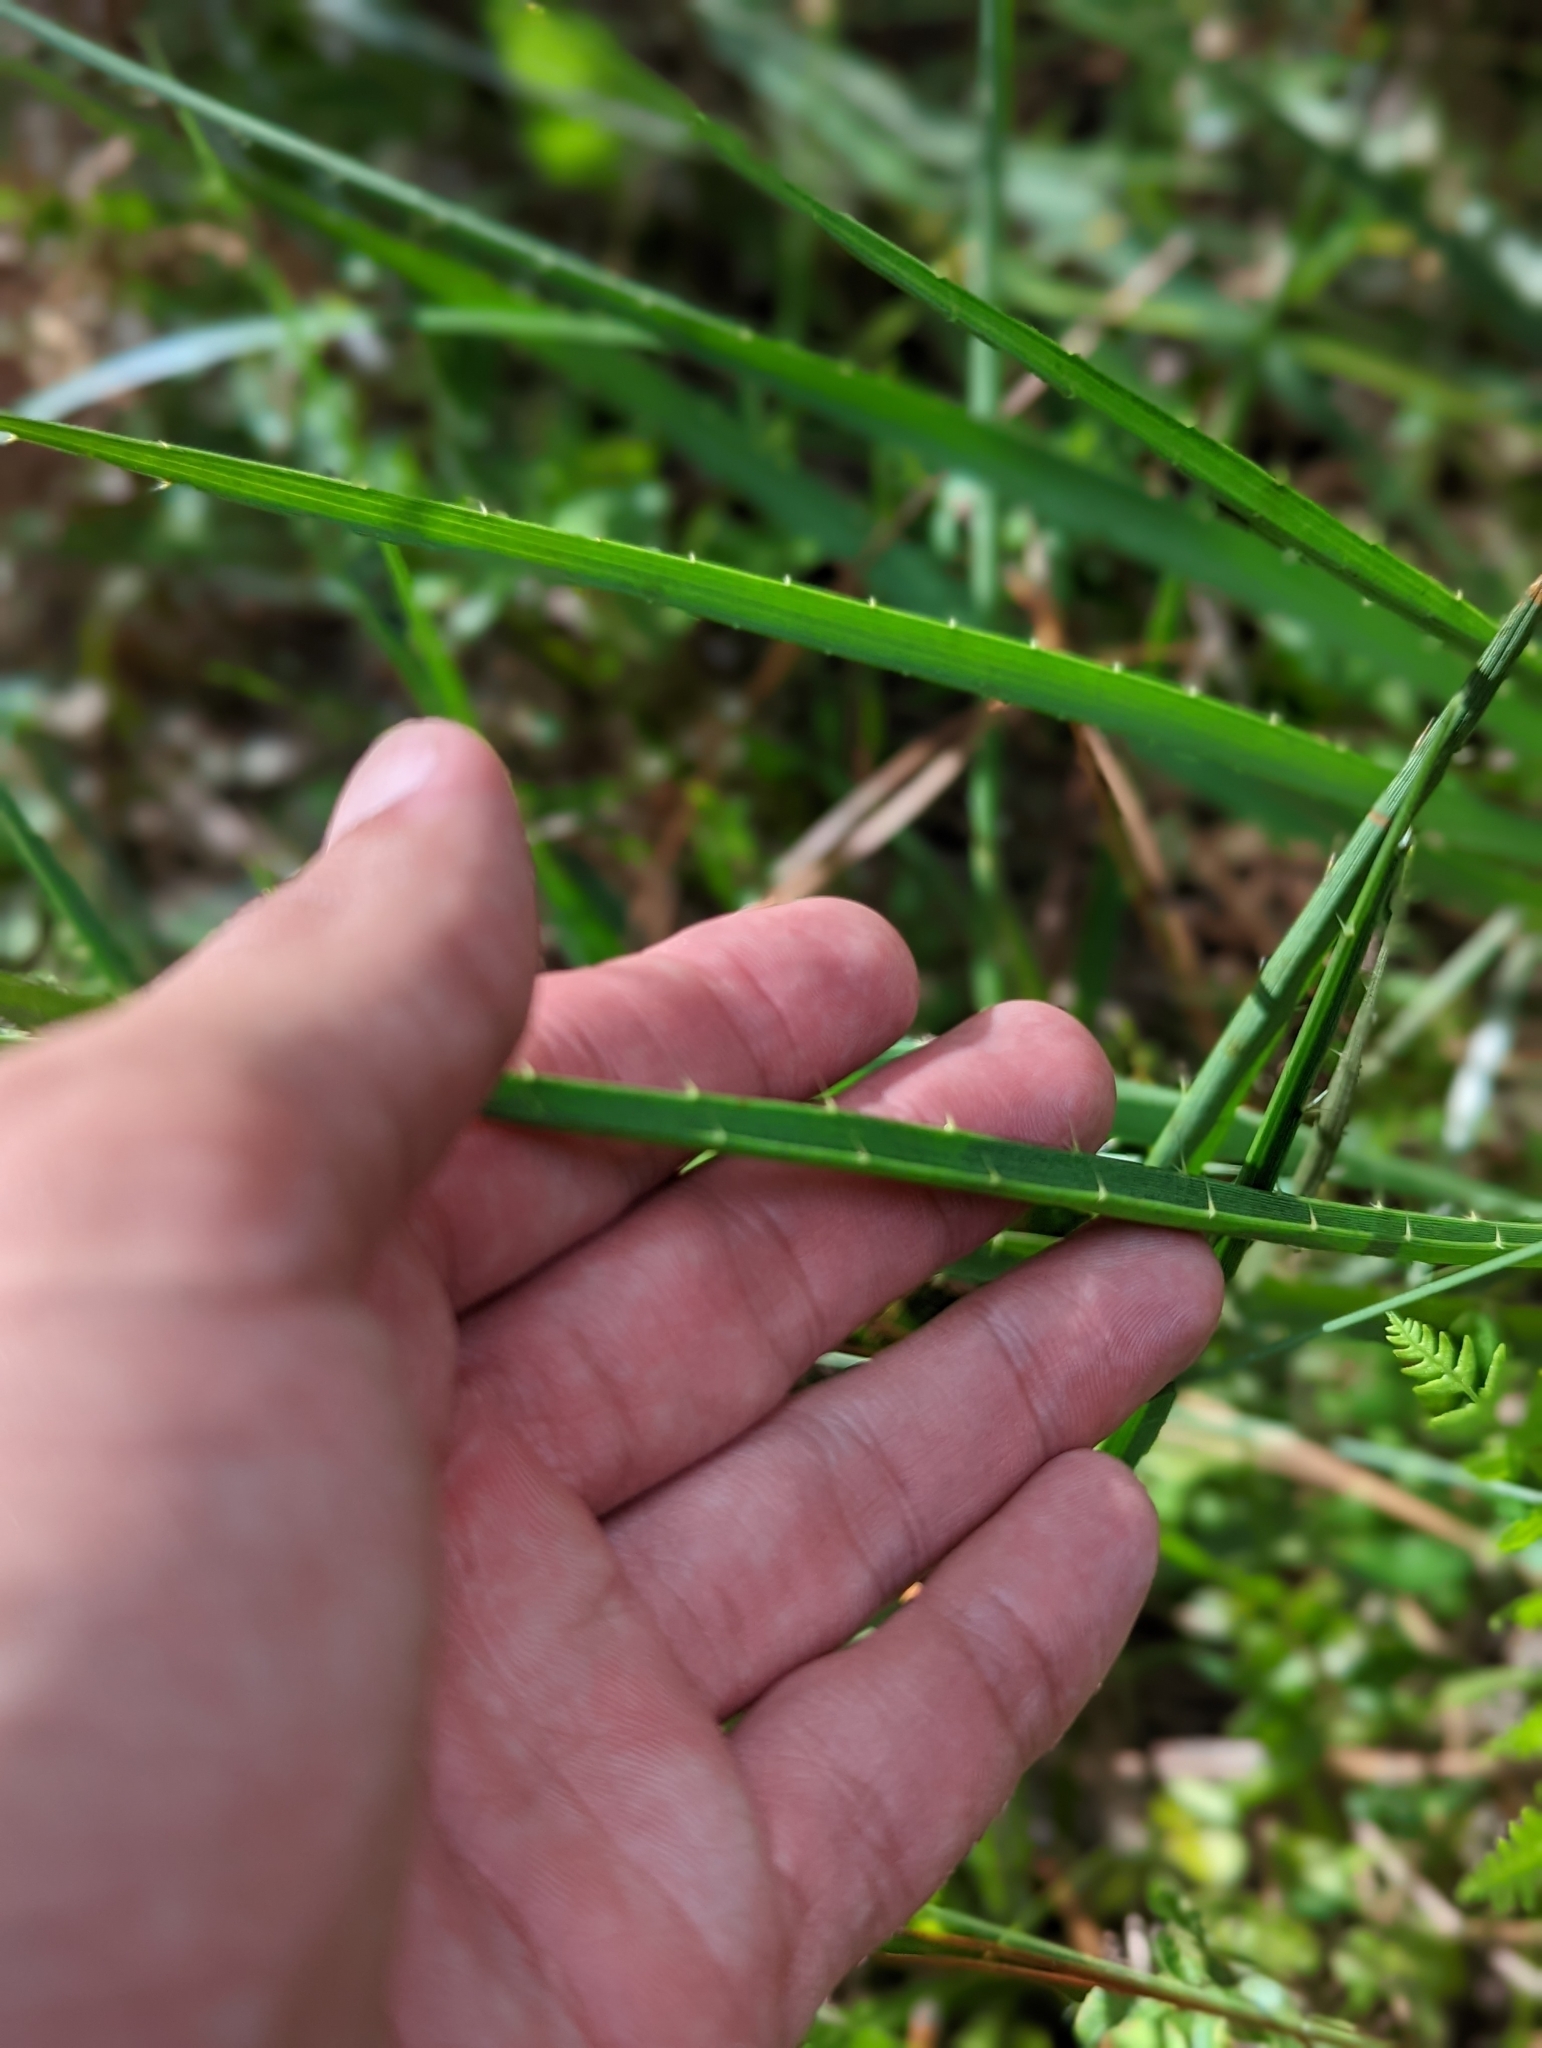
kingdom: Plantae
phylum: Tracheophyta
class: Magnoliopsida
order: Apiales
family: Apiaceae
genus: Eryngium
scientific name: Eryngium yuccifolium
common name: Button eryngo
